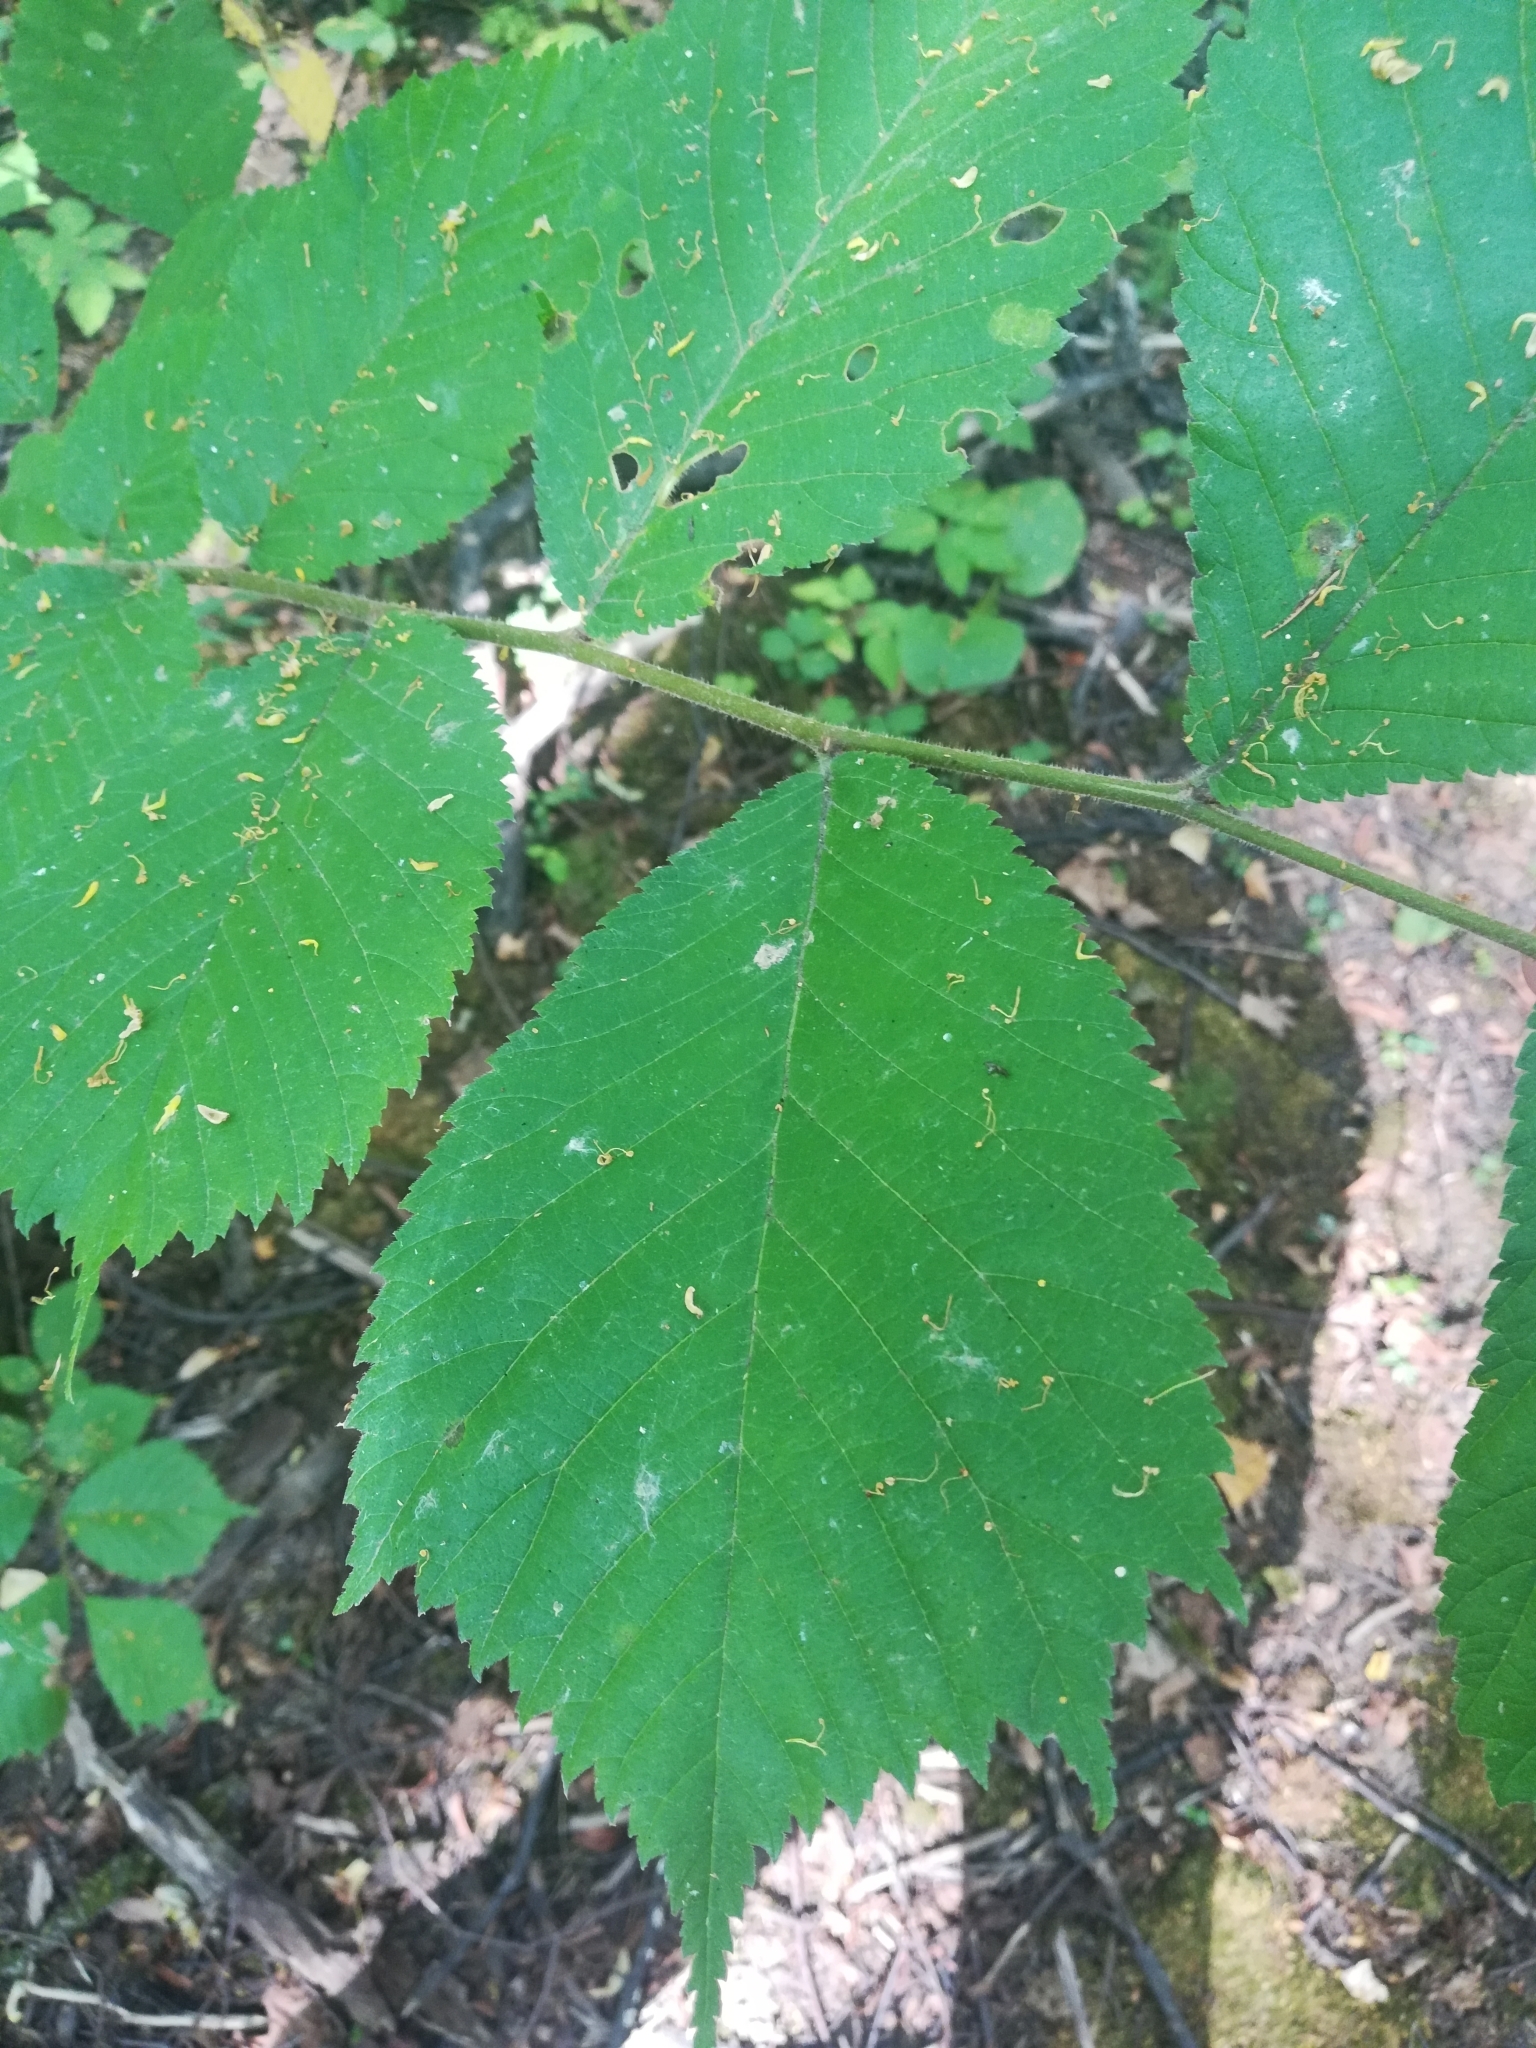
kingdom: Plantae
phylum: Tracheophyta
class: Magnoliopsida
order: Rosales
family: Ulmaceae
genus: Ulmus
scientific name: Ulmus glabra
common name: Wych elm
